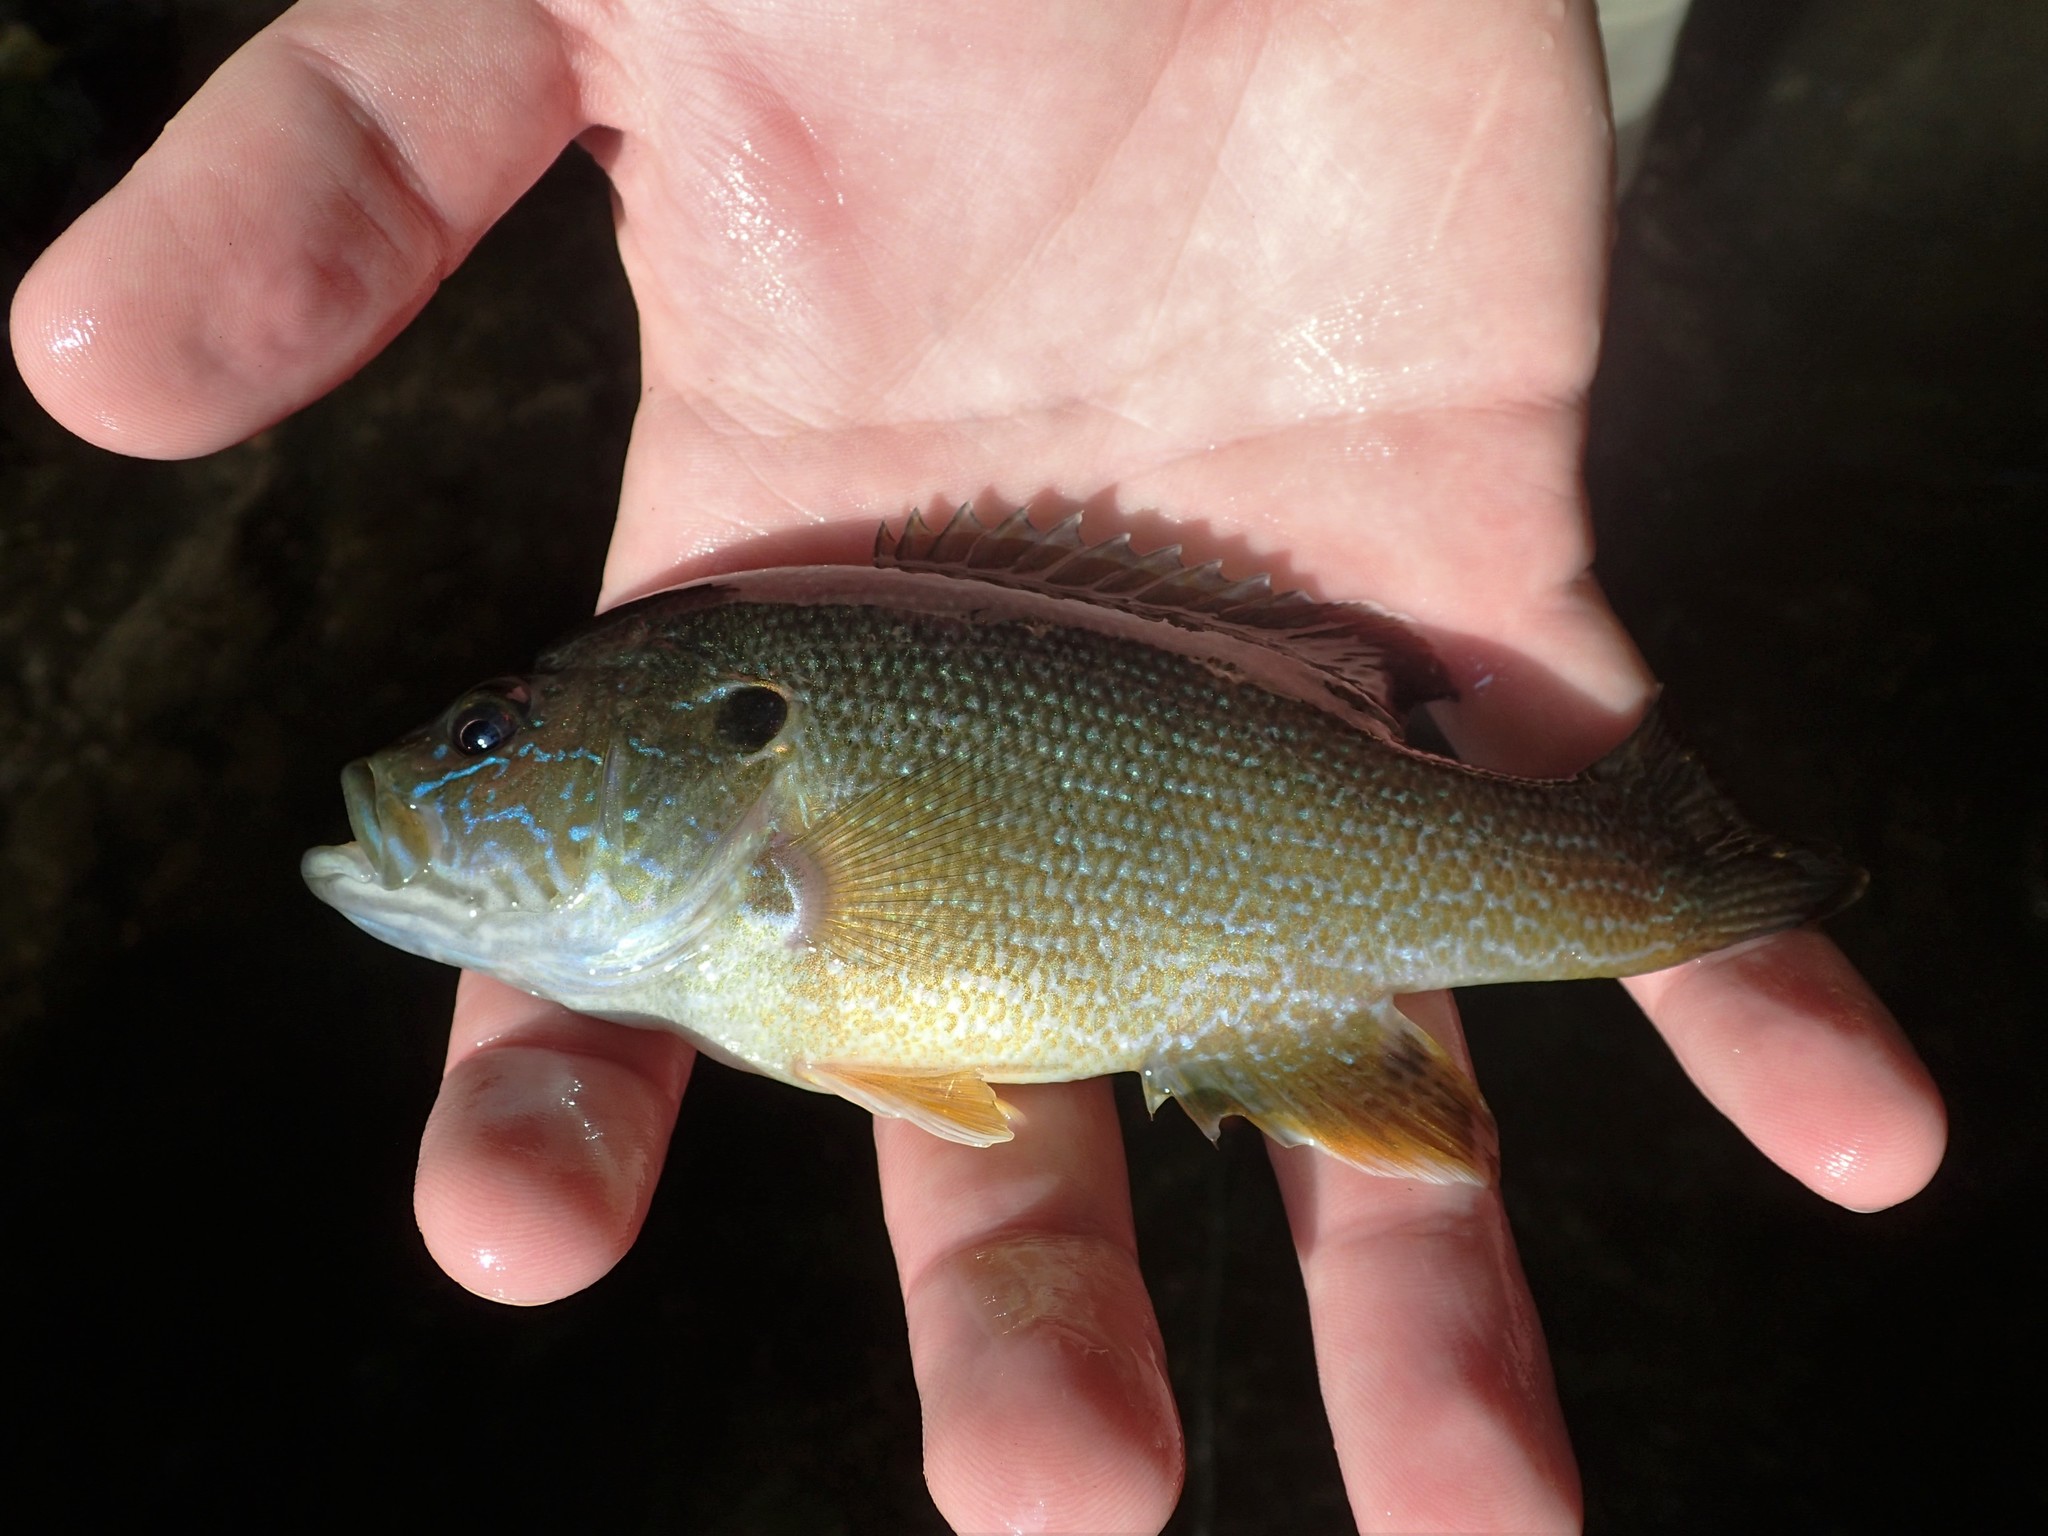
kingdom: Animalia
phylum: Chordata
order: Perciformes
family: Centrarchidae
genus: Lepomis
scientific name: Lepomis cyanellus
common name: Green sunfish
